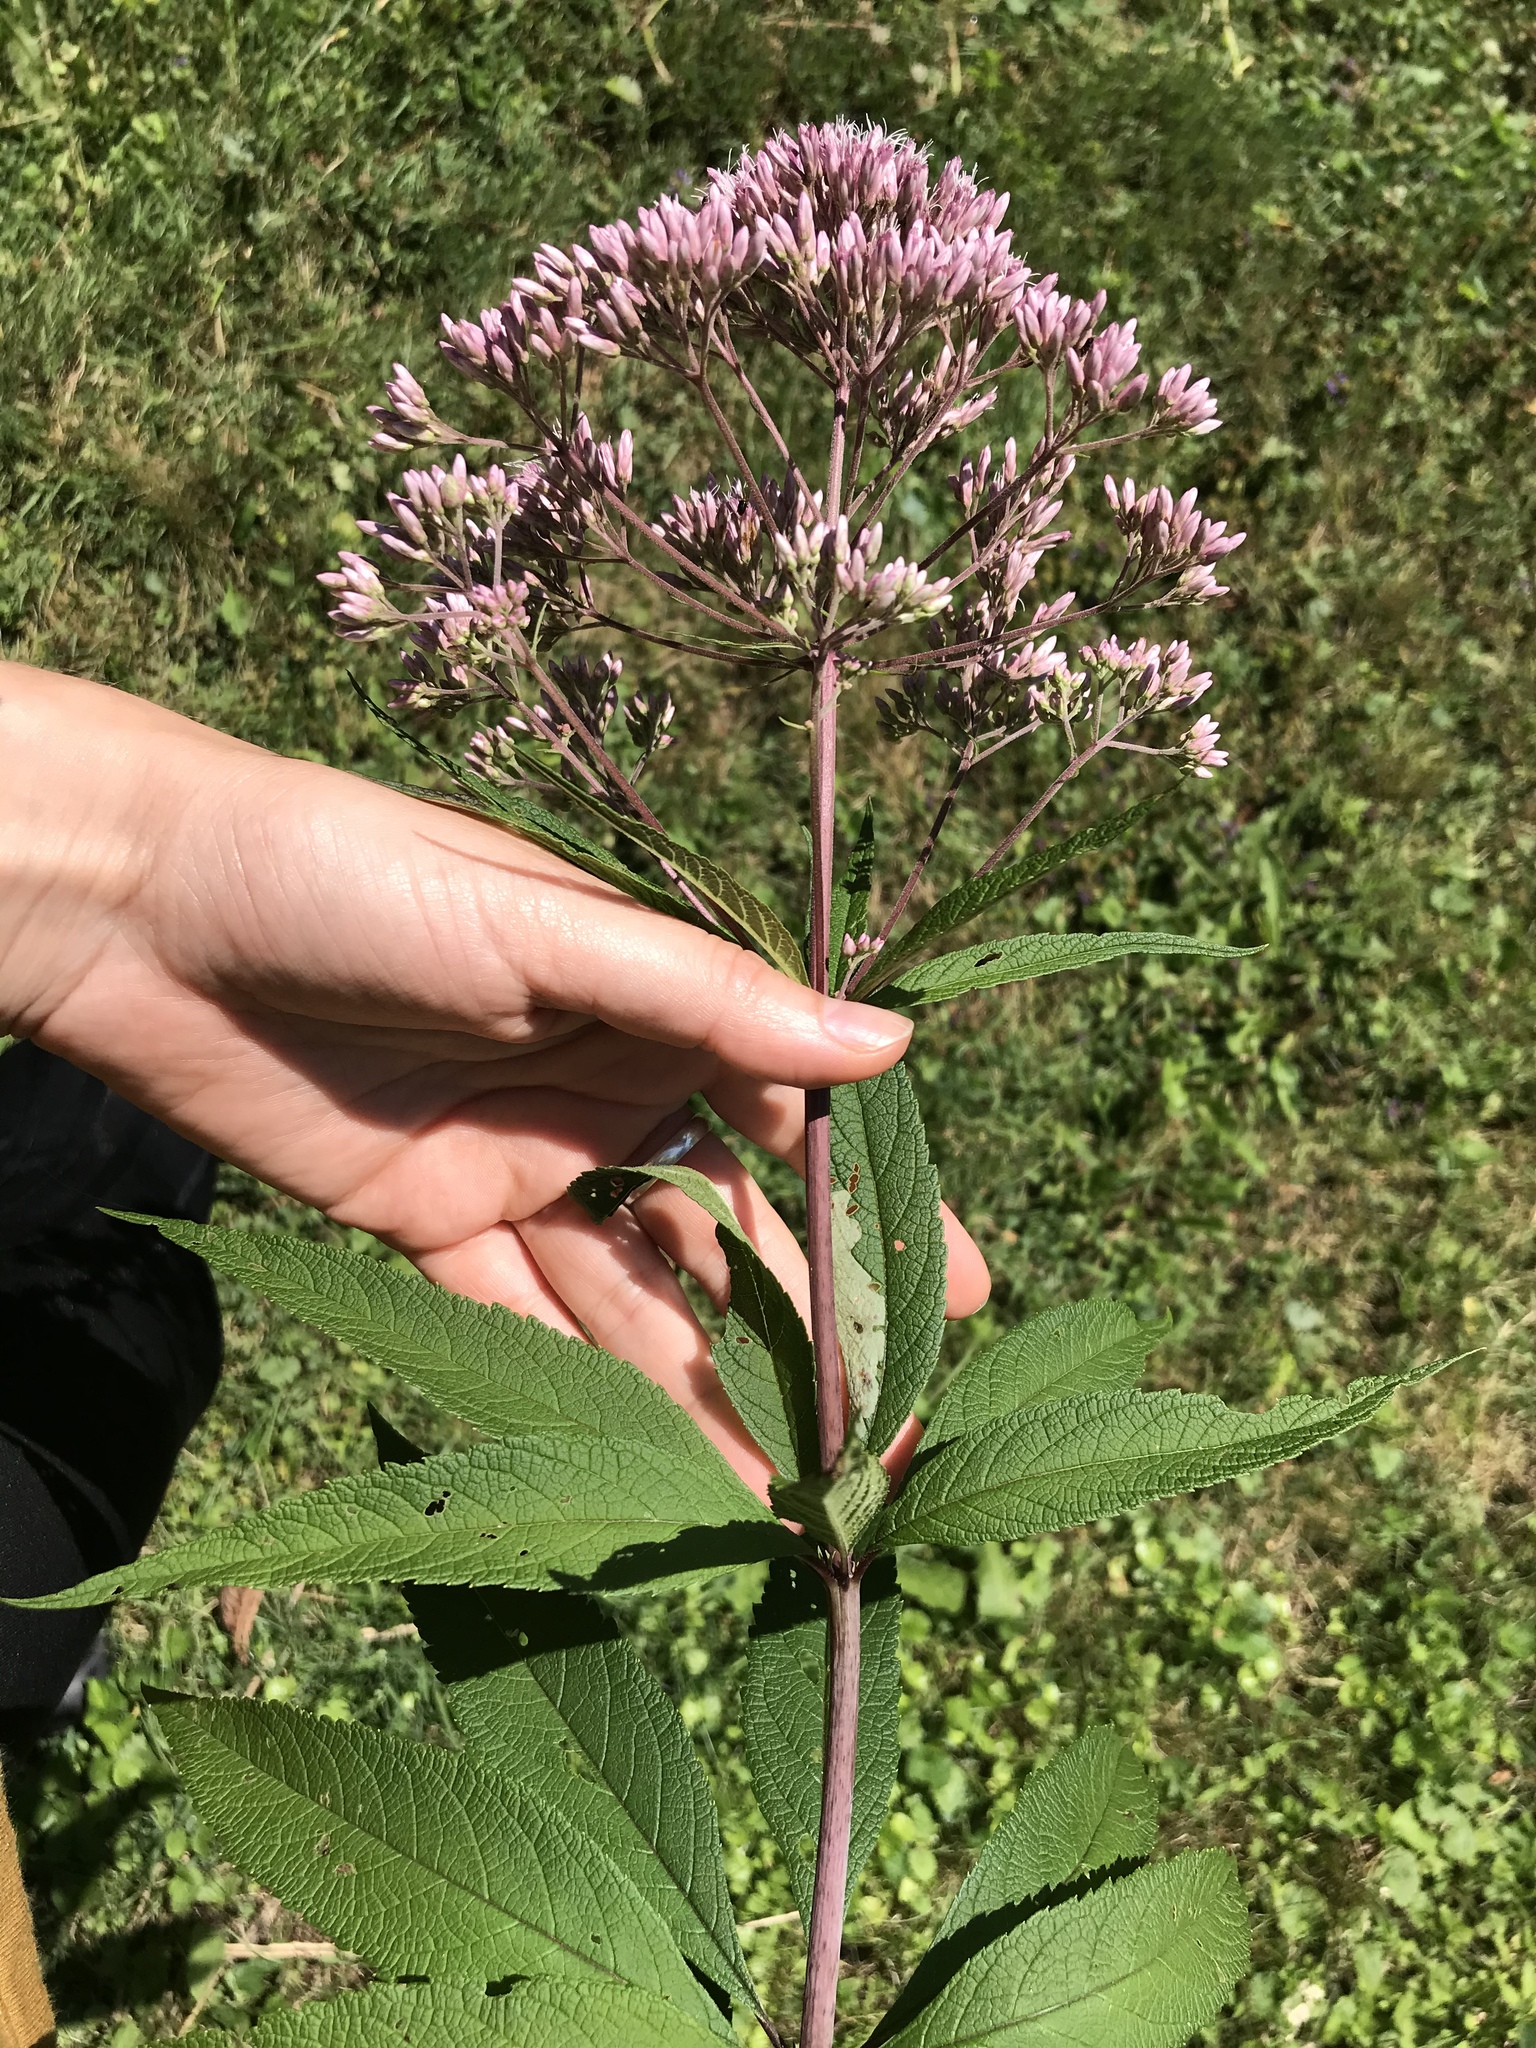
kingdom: Plantae
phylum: Tracheophyta
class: Magnoliopsida
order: Asterales
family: Asteraceae
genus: Eutrochium
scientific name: Eutrochium fistulosum
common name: Trumpetweed
